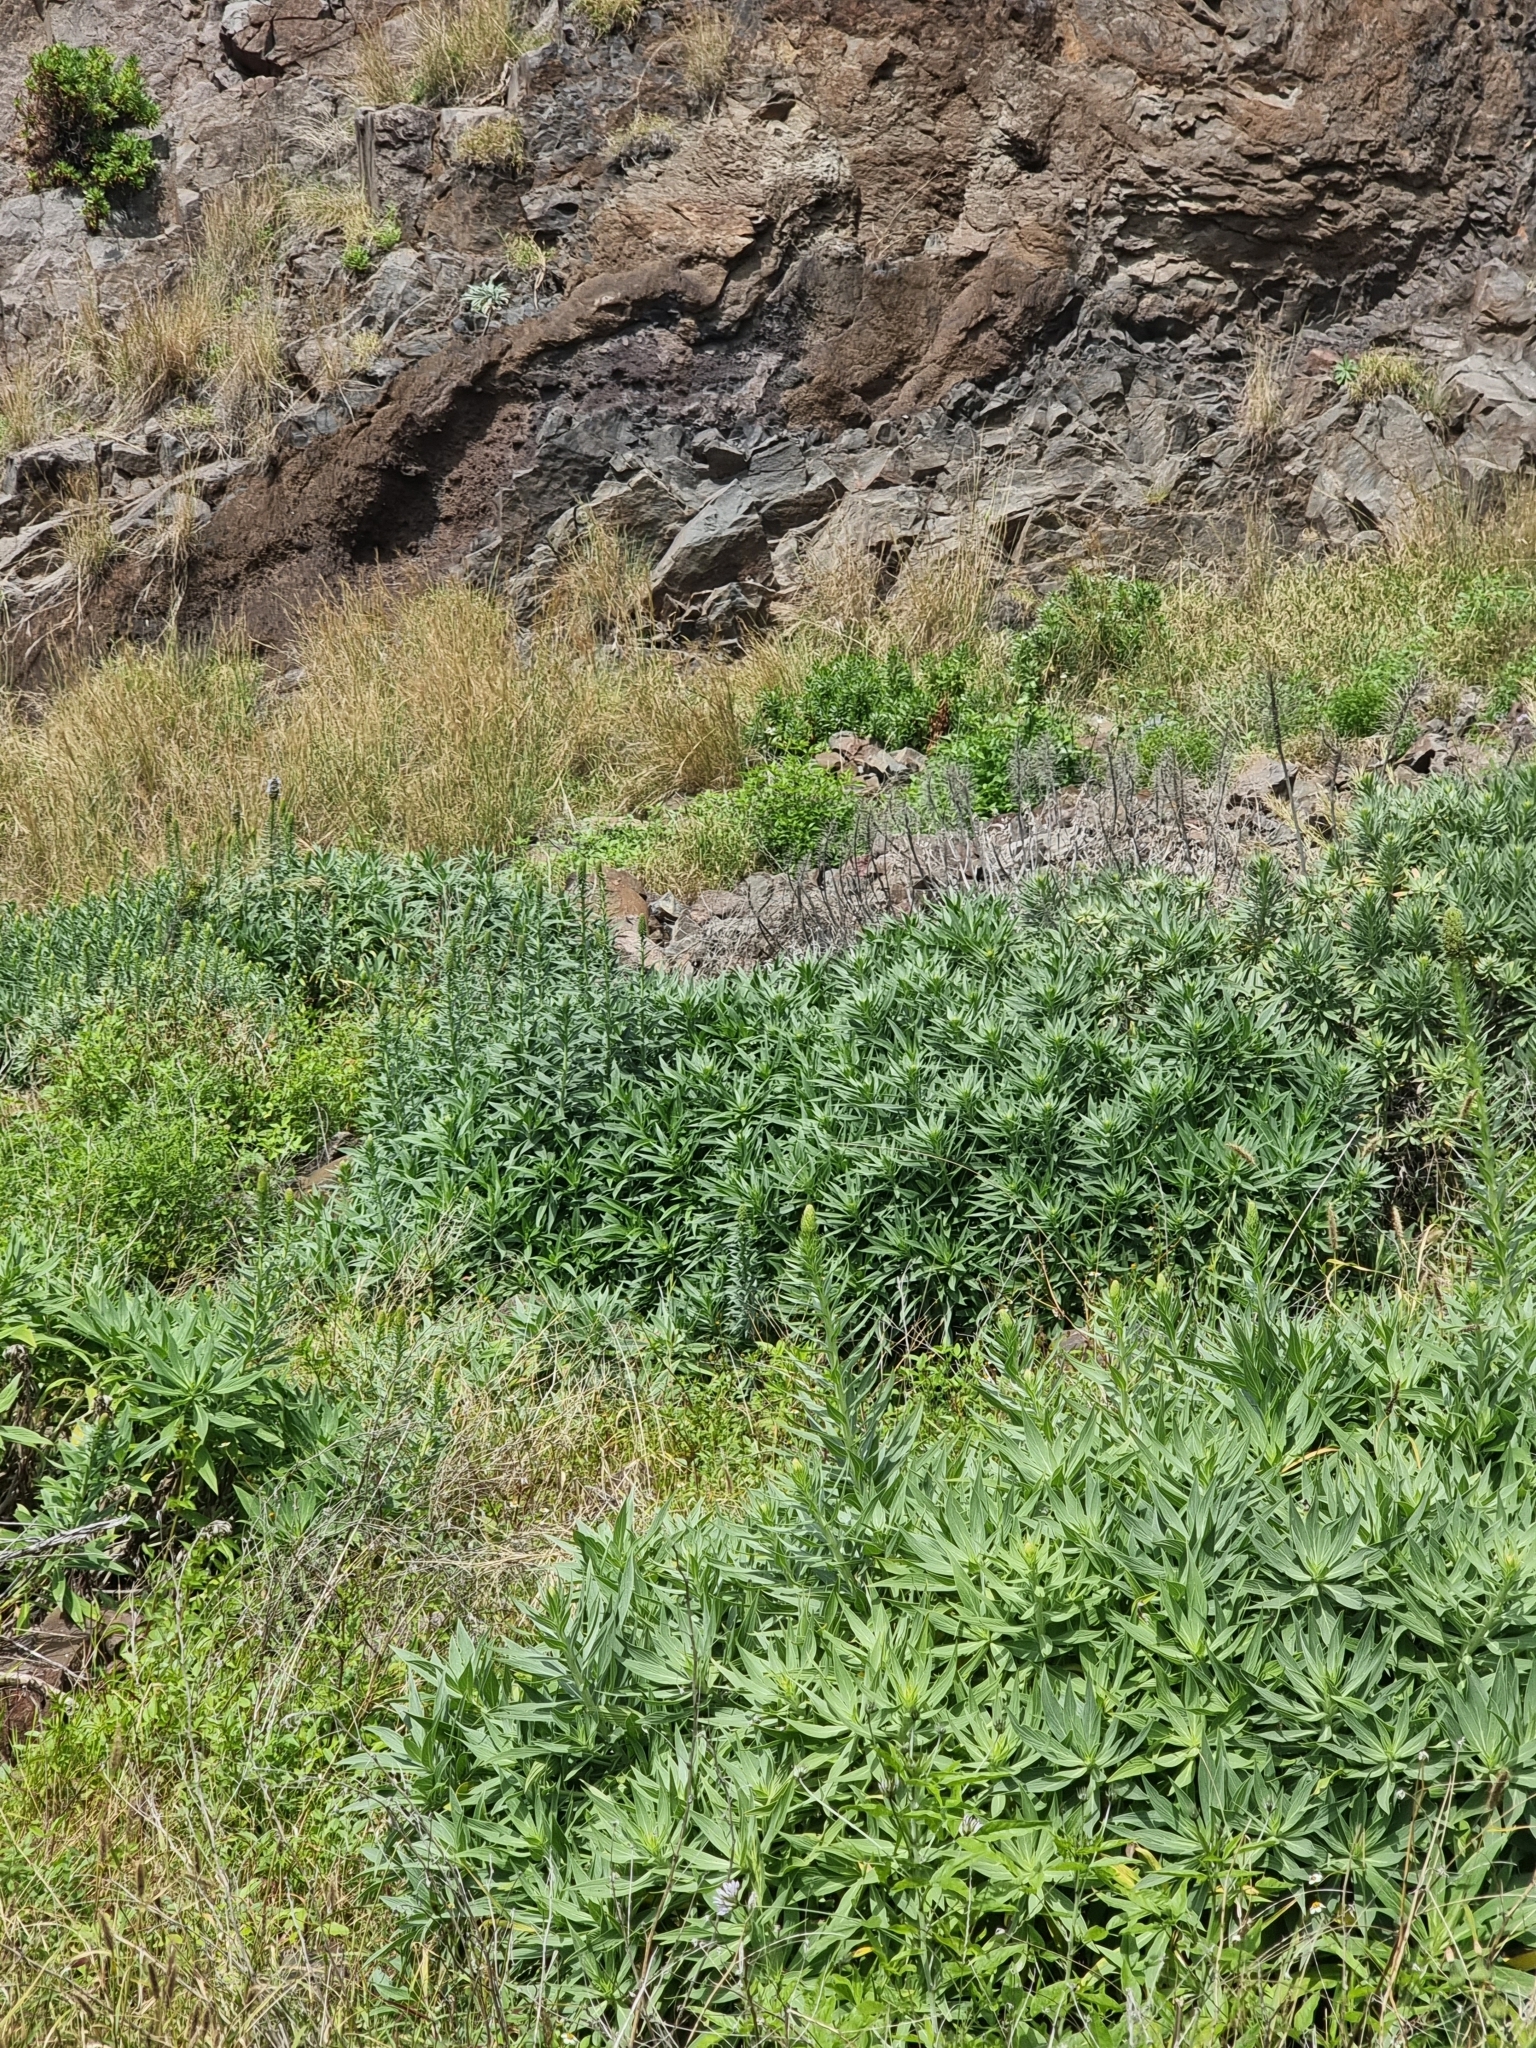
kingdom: Plantae
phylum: Tracheophyta
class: Magnoliopsida
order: Boraginales
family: Boraginaceae
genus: Echium
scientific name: Echium nervosum
